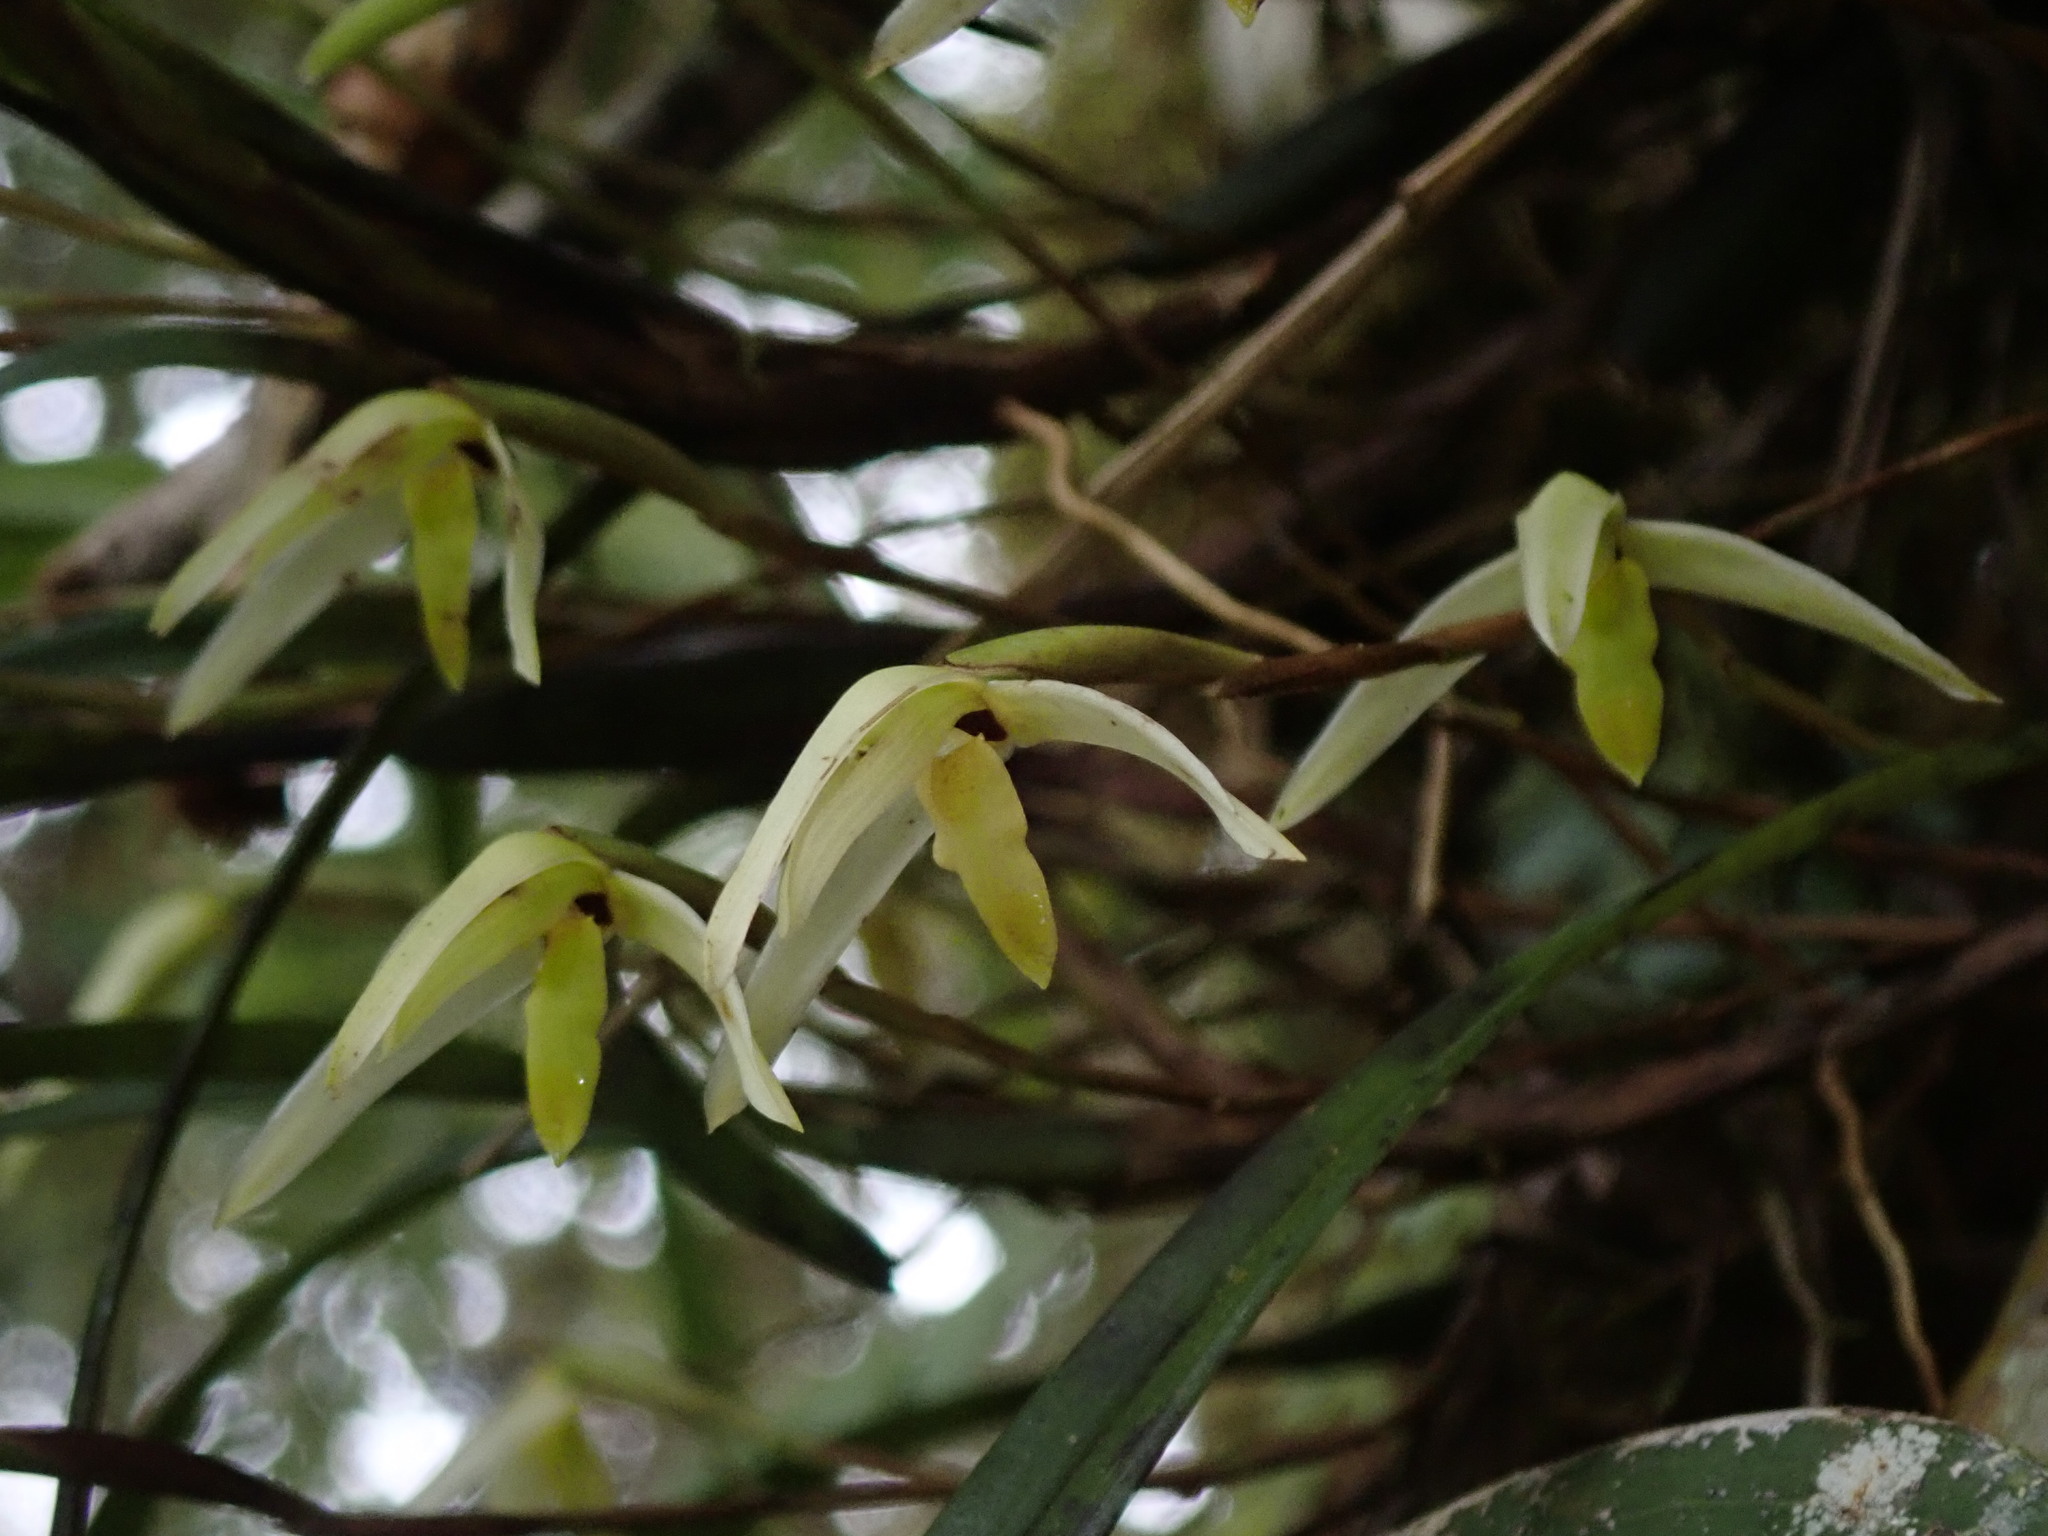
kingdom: Plantae
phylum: Tracheophyta
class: Liliopsida
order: Asparagales
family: Orchidaceae
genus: Maxillaria
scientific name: Maxillaria acuminata
